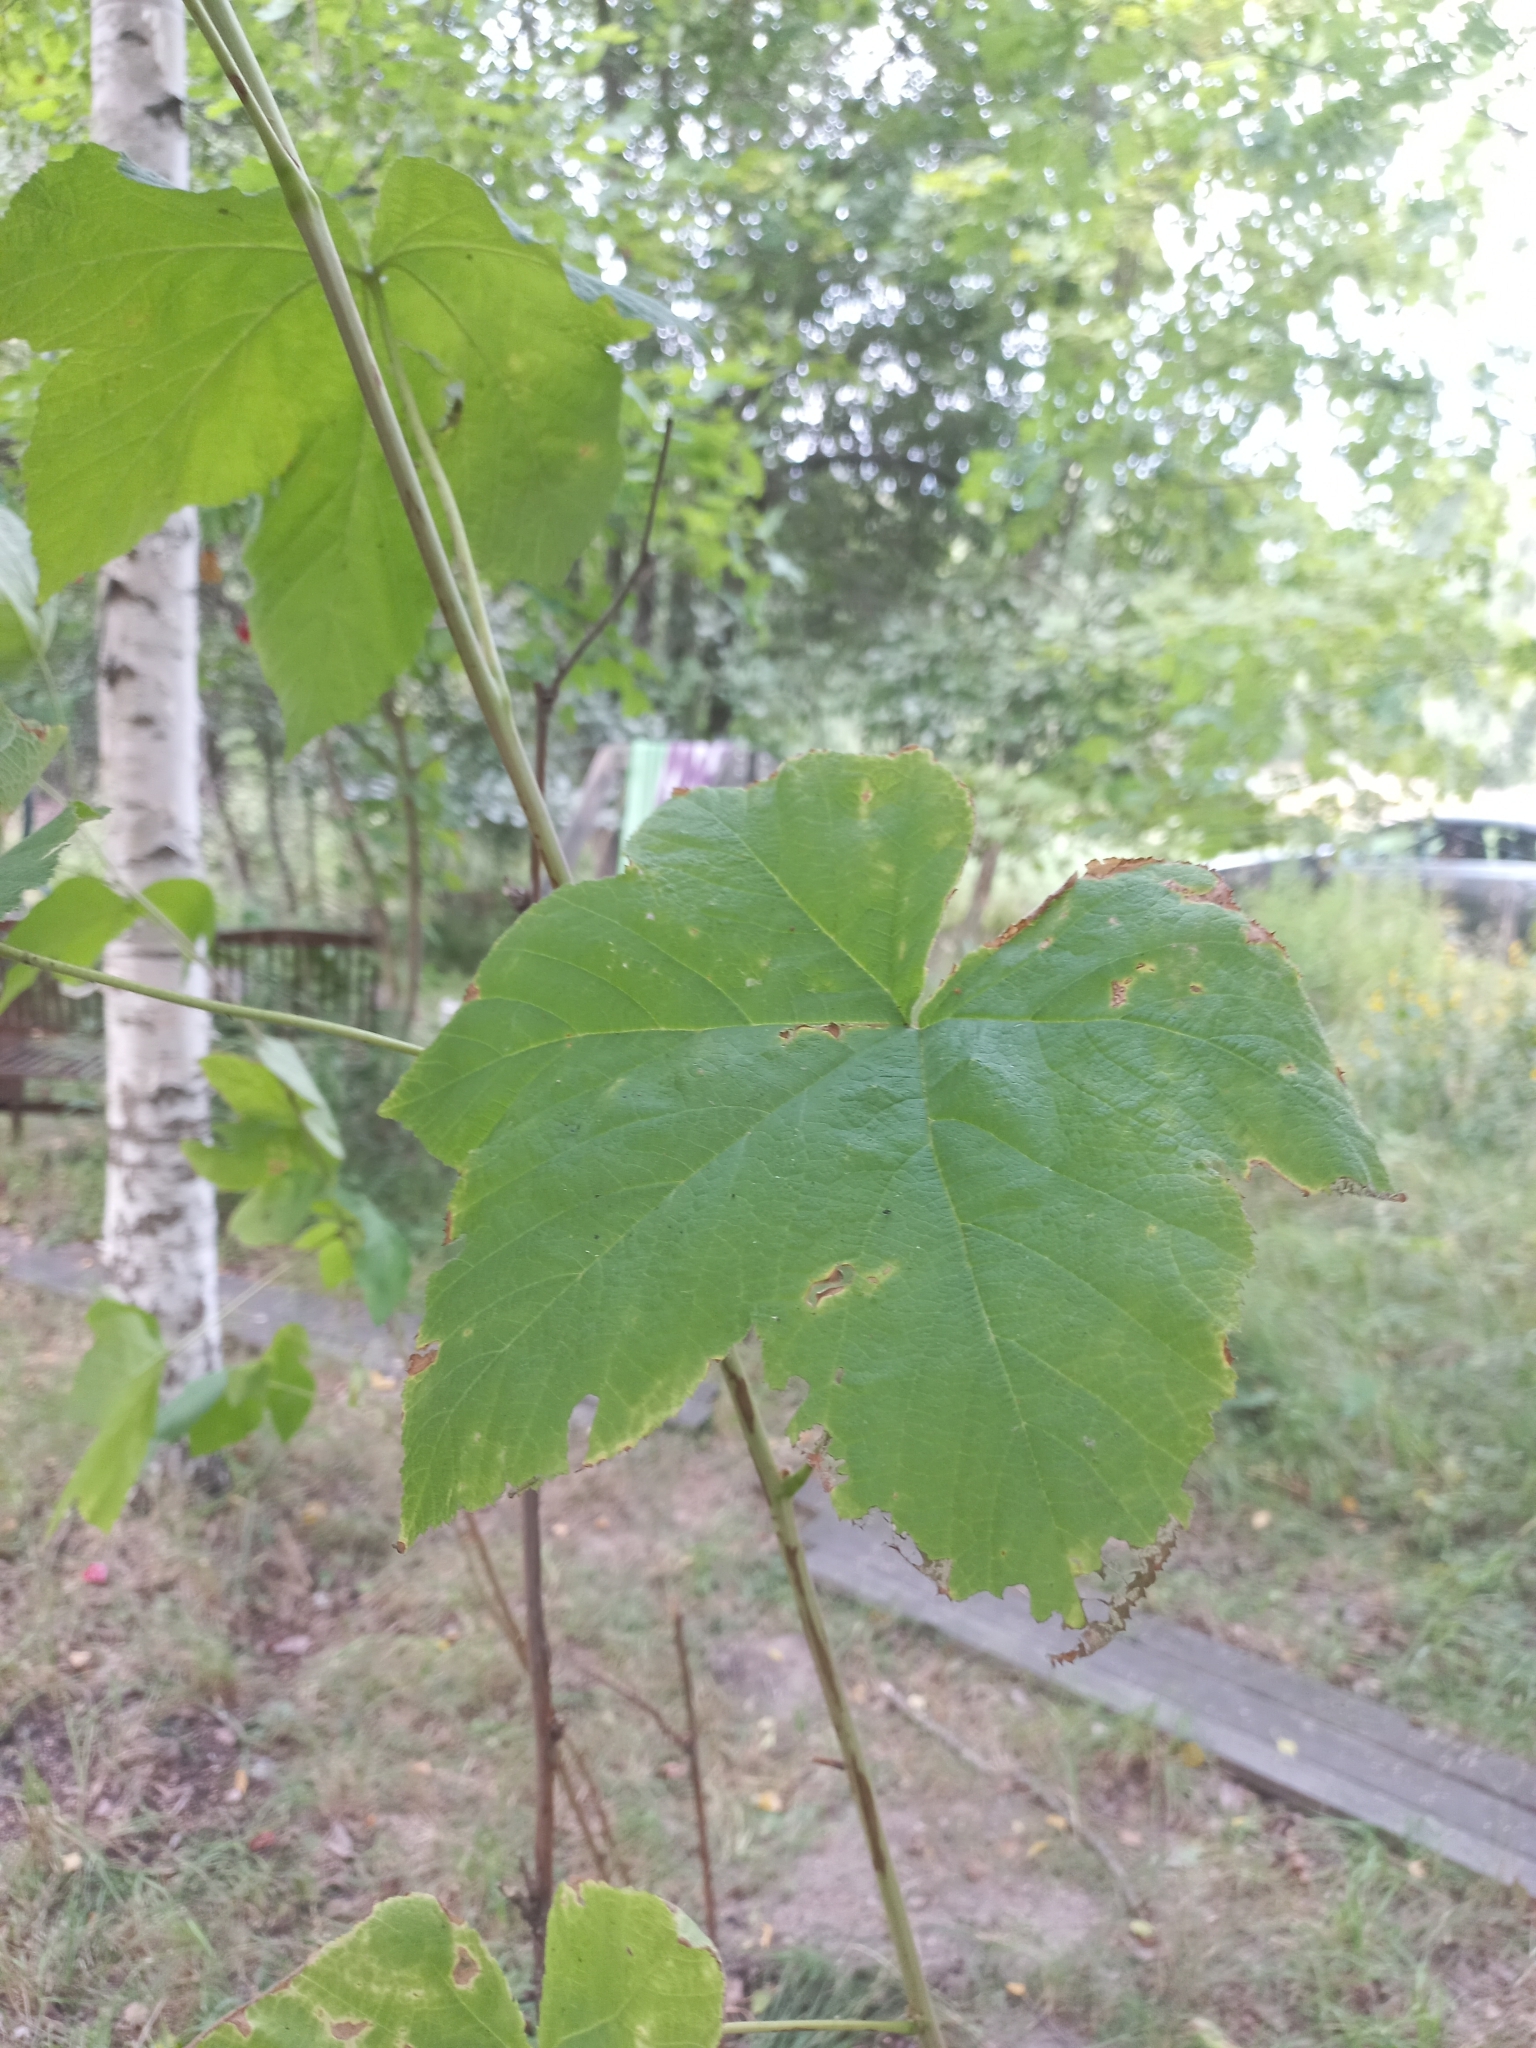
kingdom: Plantae
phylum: Tracheophyta
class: Magnoliopsida
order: Rosales
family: Rosaceae
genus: Rubus
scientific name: Rubus odoratus
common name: Purple-flowered raspberry
